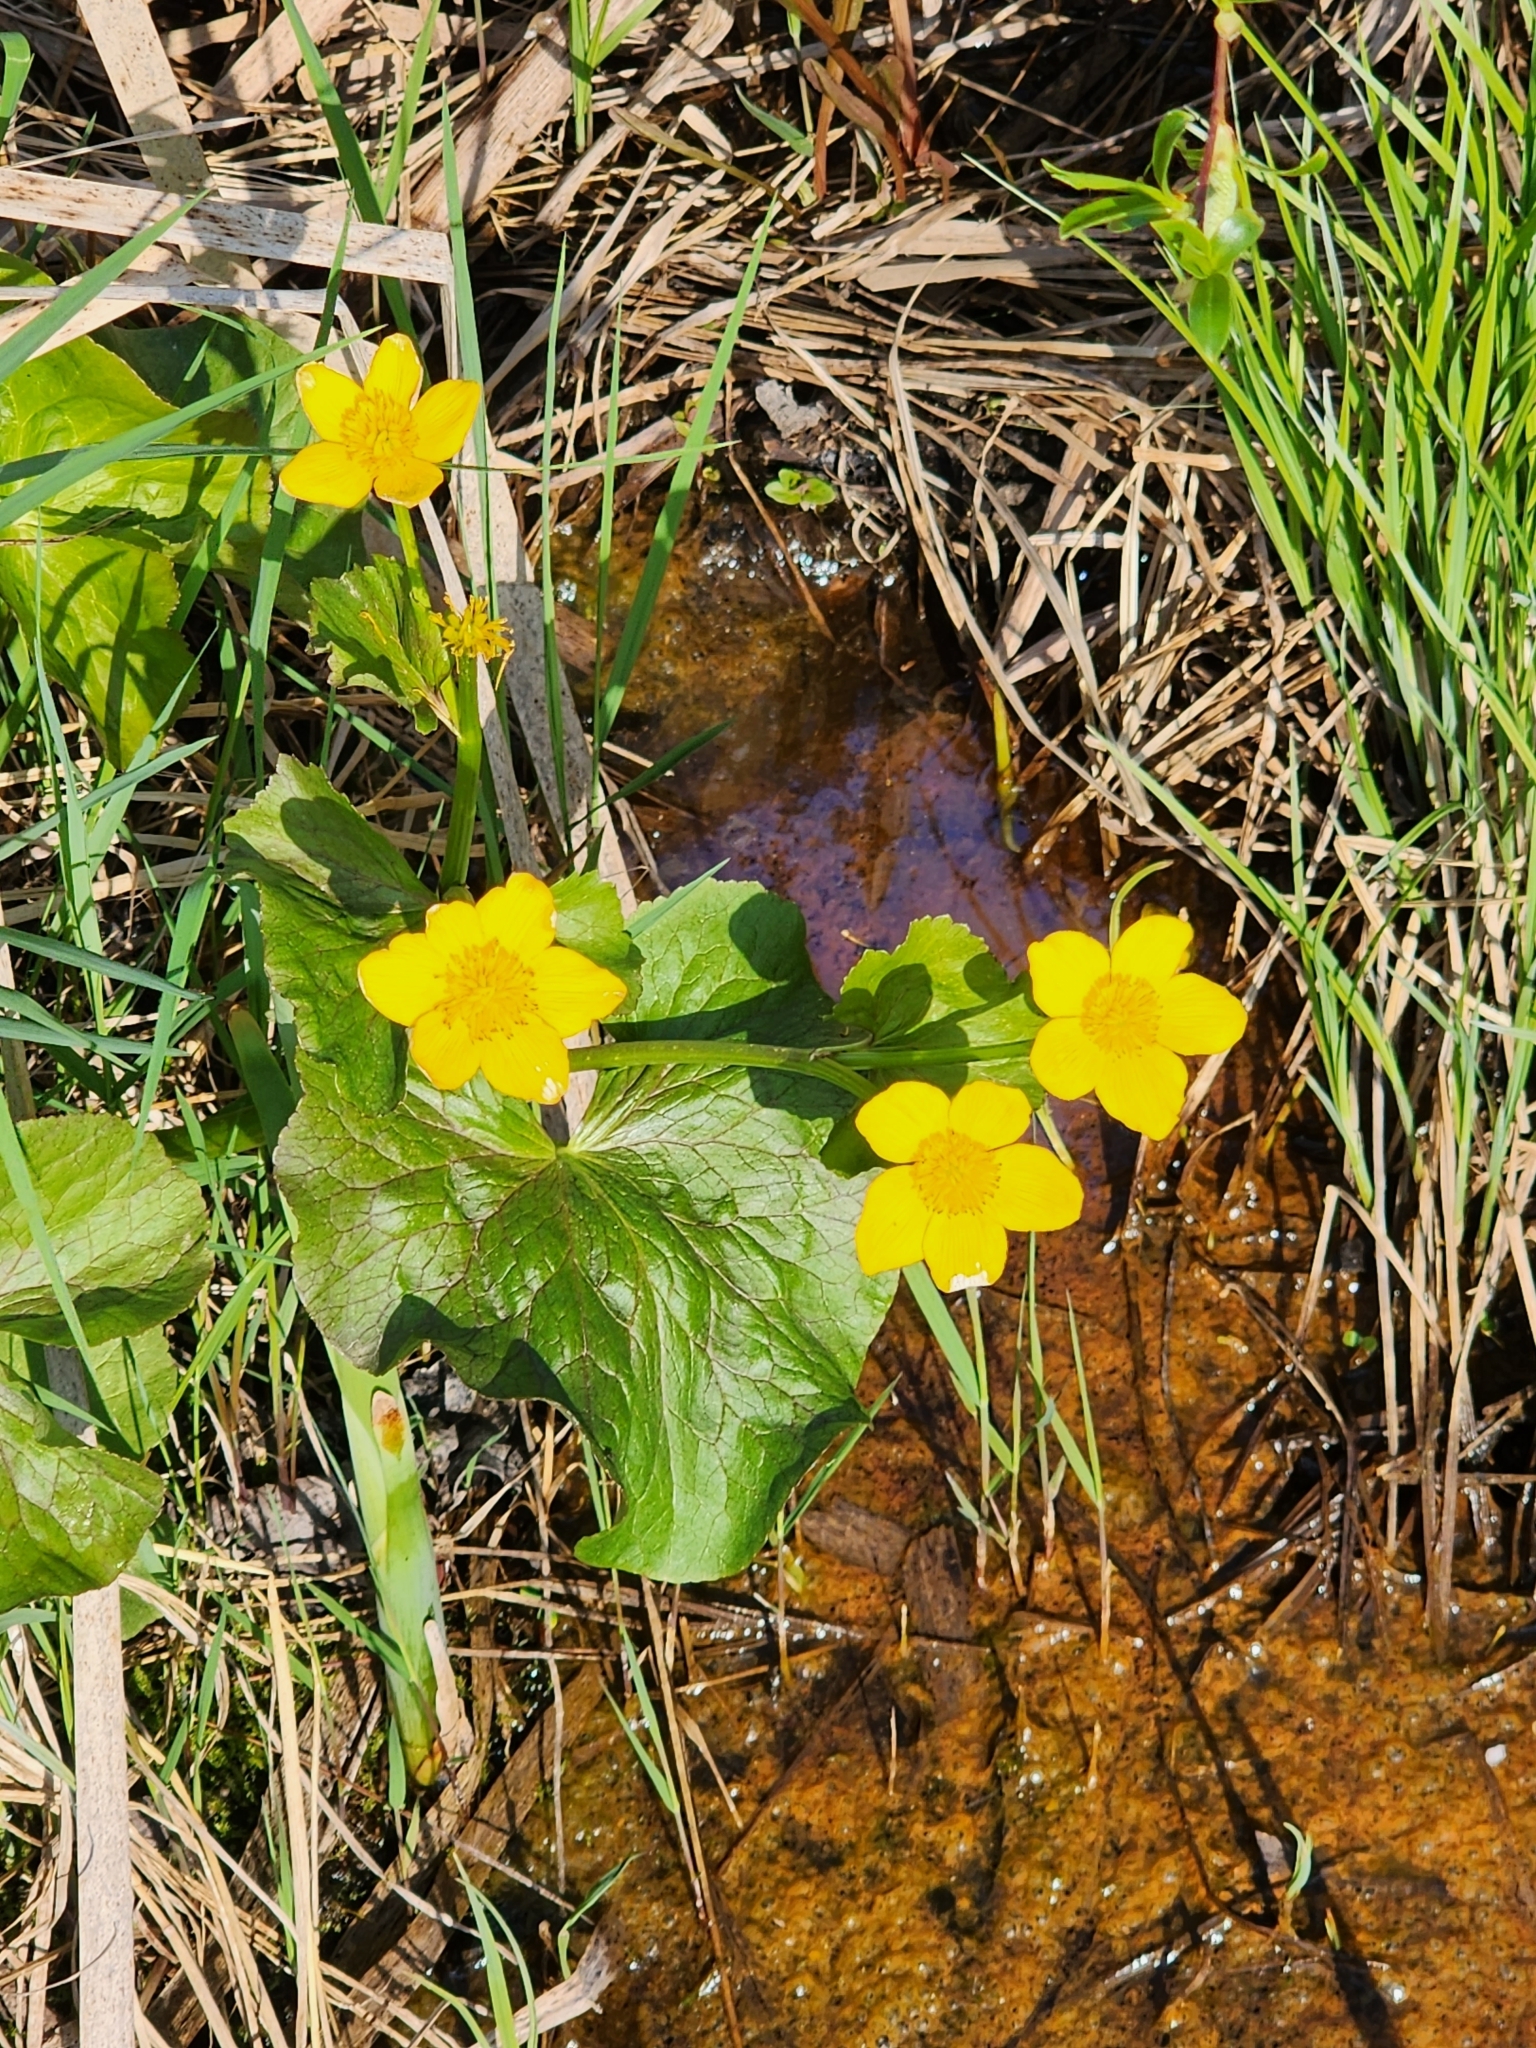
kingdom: Plantae
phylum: Tracheophyta
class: Magnoliopsida
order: Ranunculales
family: Ranunculaceae
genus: Caltha
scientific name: Caltha palustris
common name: Marsh marigold
